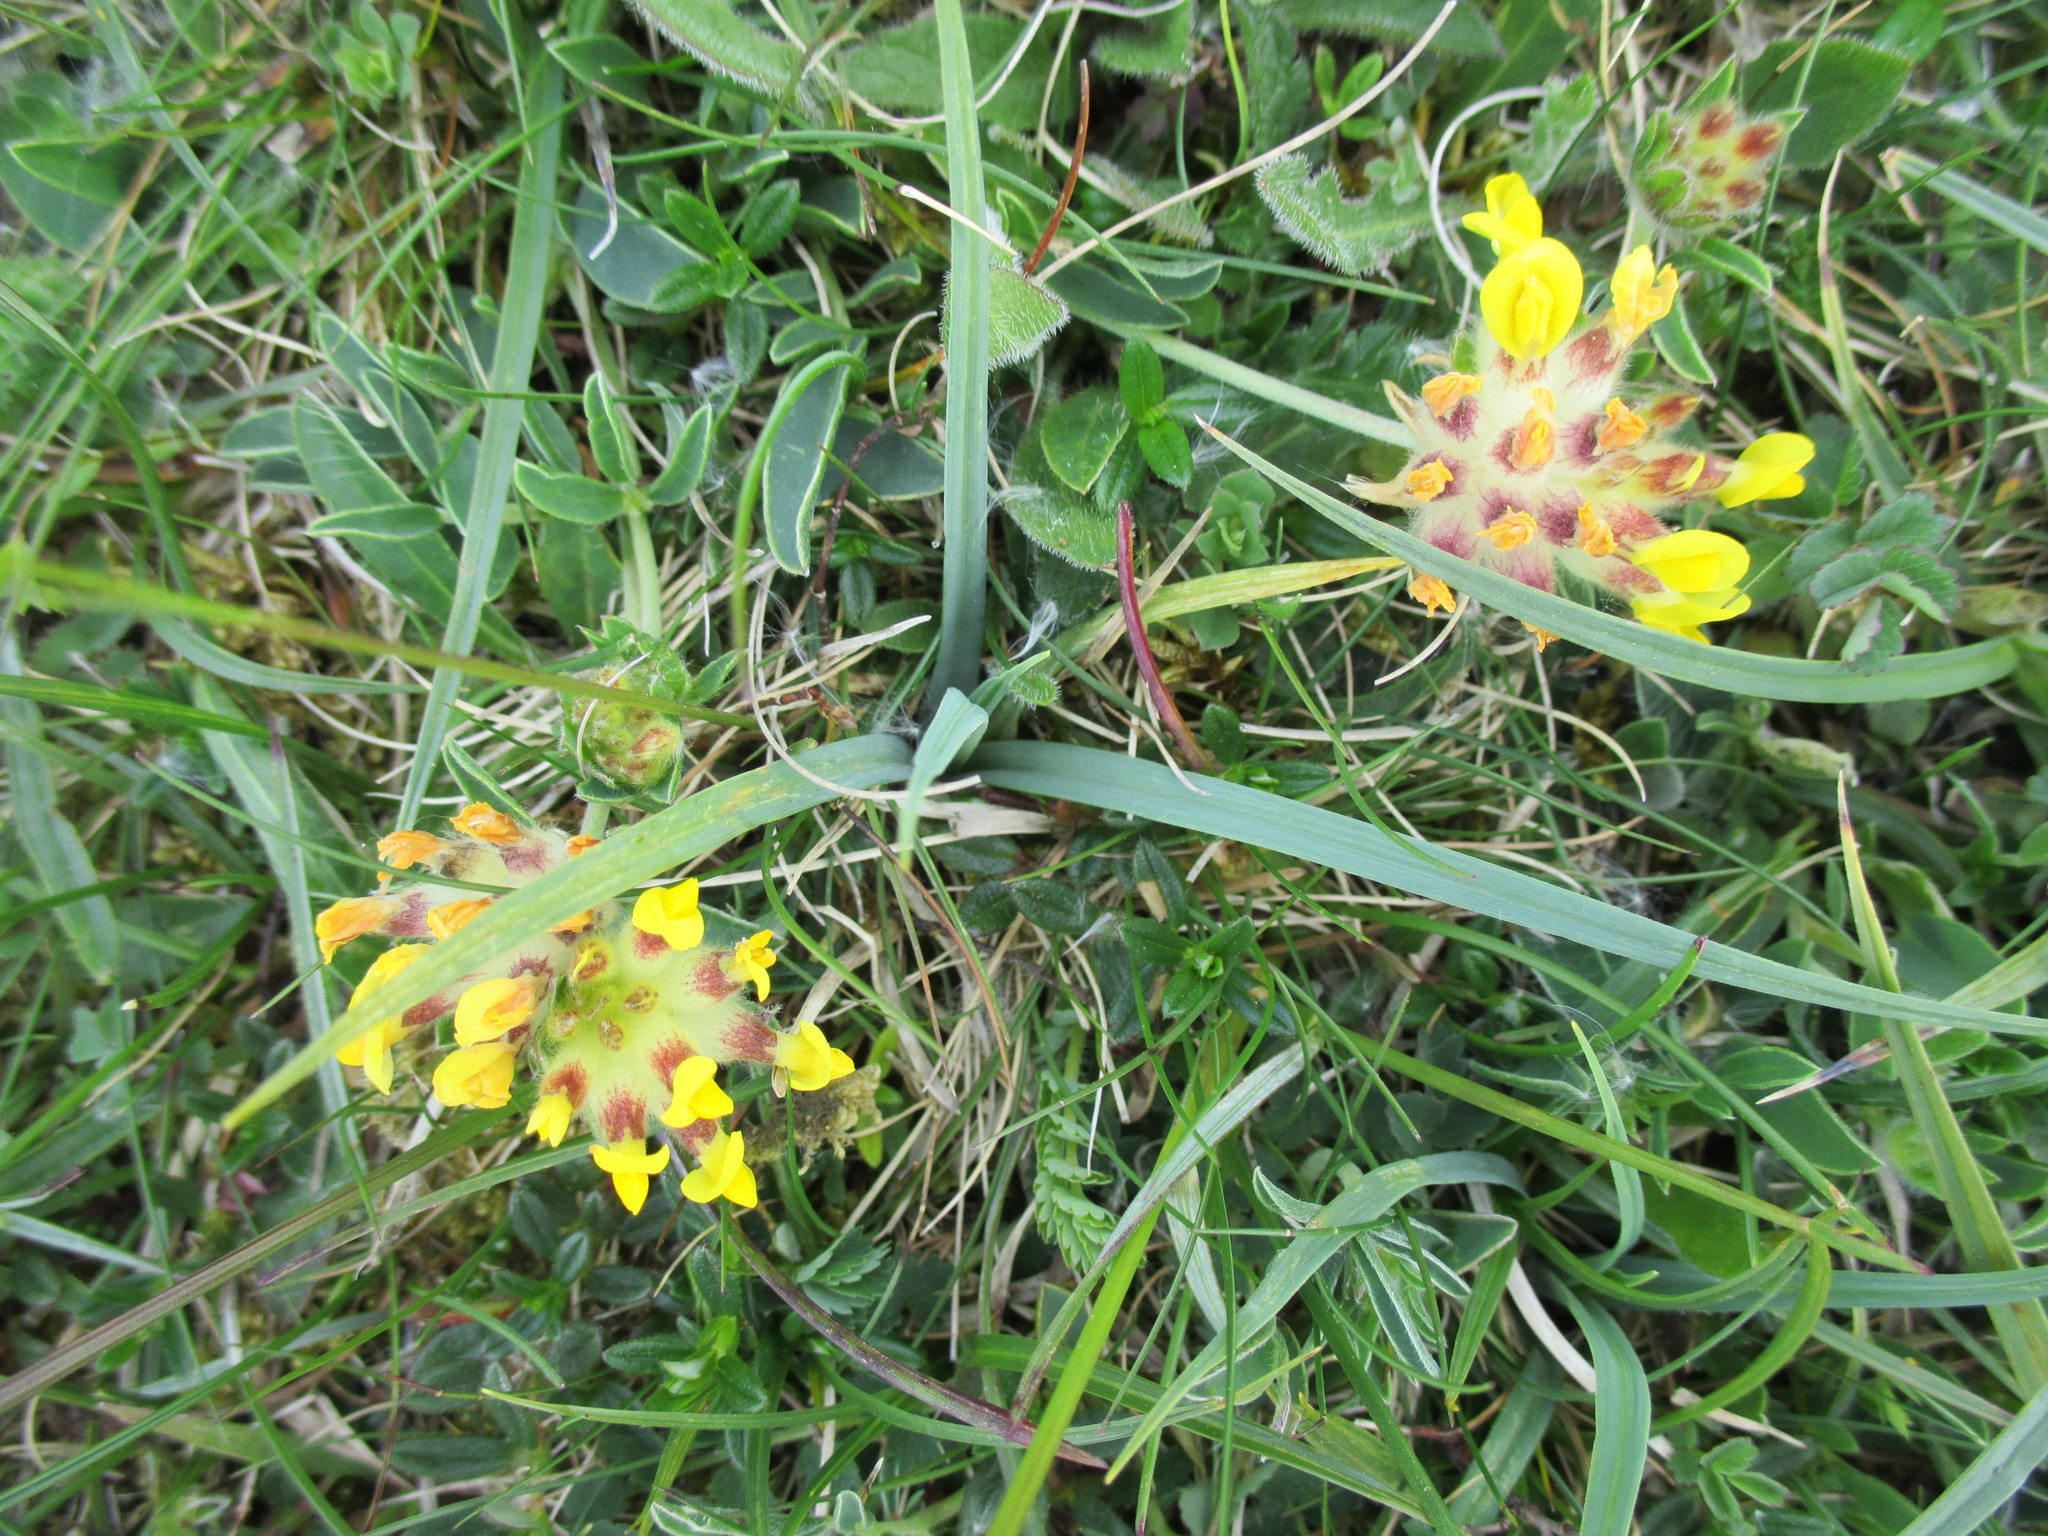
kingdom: Plantae
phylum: Tracheophyta
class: Magnoliopsida
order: Fabales
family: Fabaceae
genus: Anthyllis
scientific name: Anthyllis vulneraria
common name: Kidney vetch
